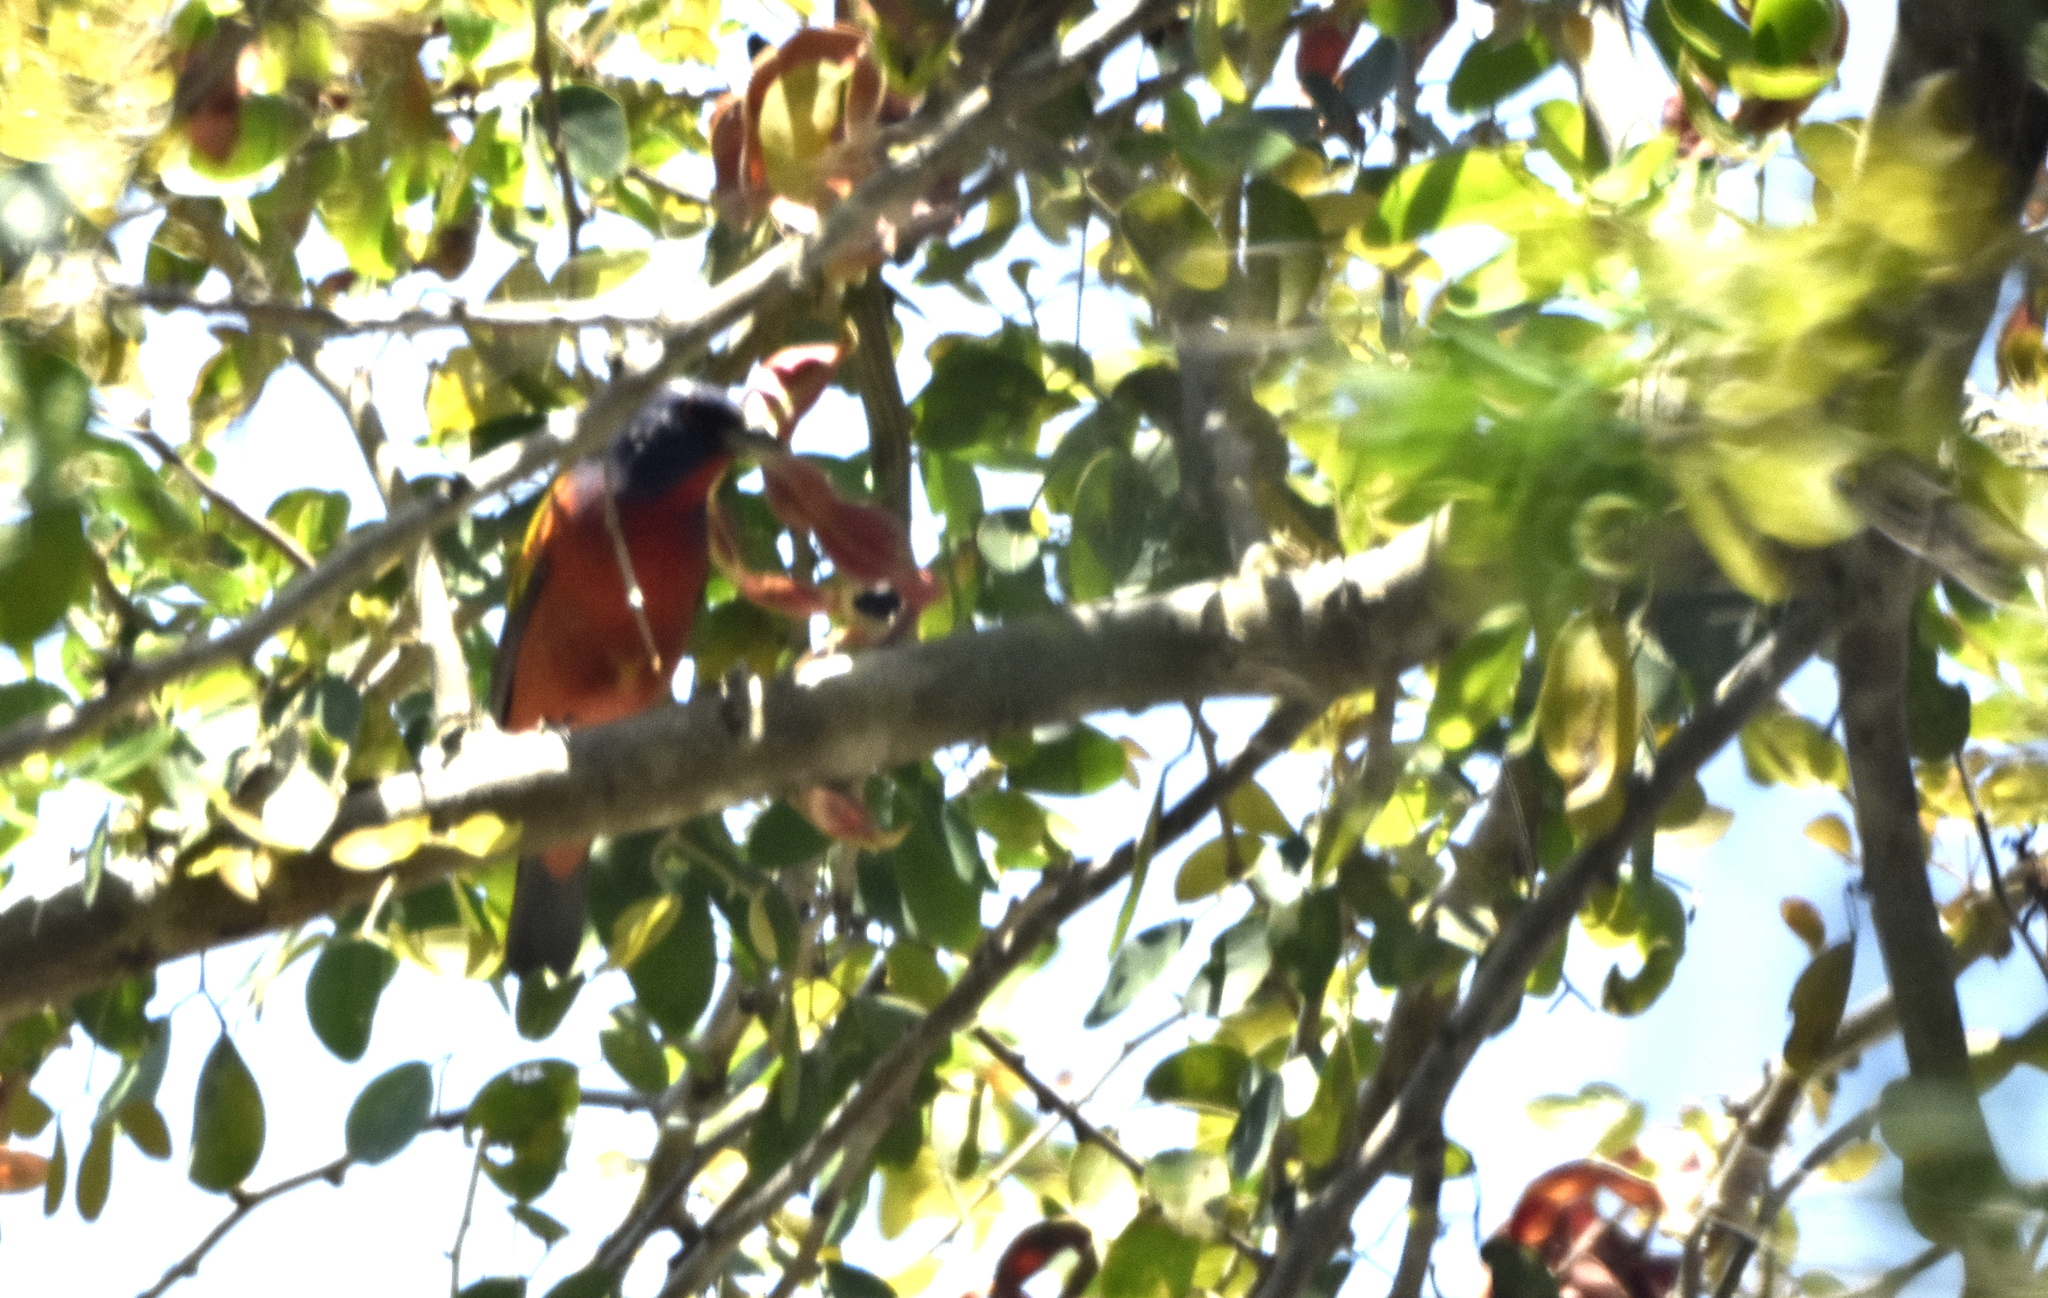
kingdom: Animalia
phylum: Chordata
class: Aves
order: Passeriformes
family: Cardinalidae
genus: Passerina
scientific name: Passerina ciris
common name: Painted bunting
